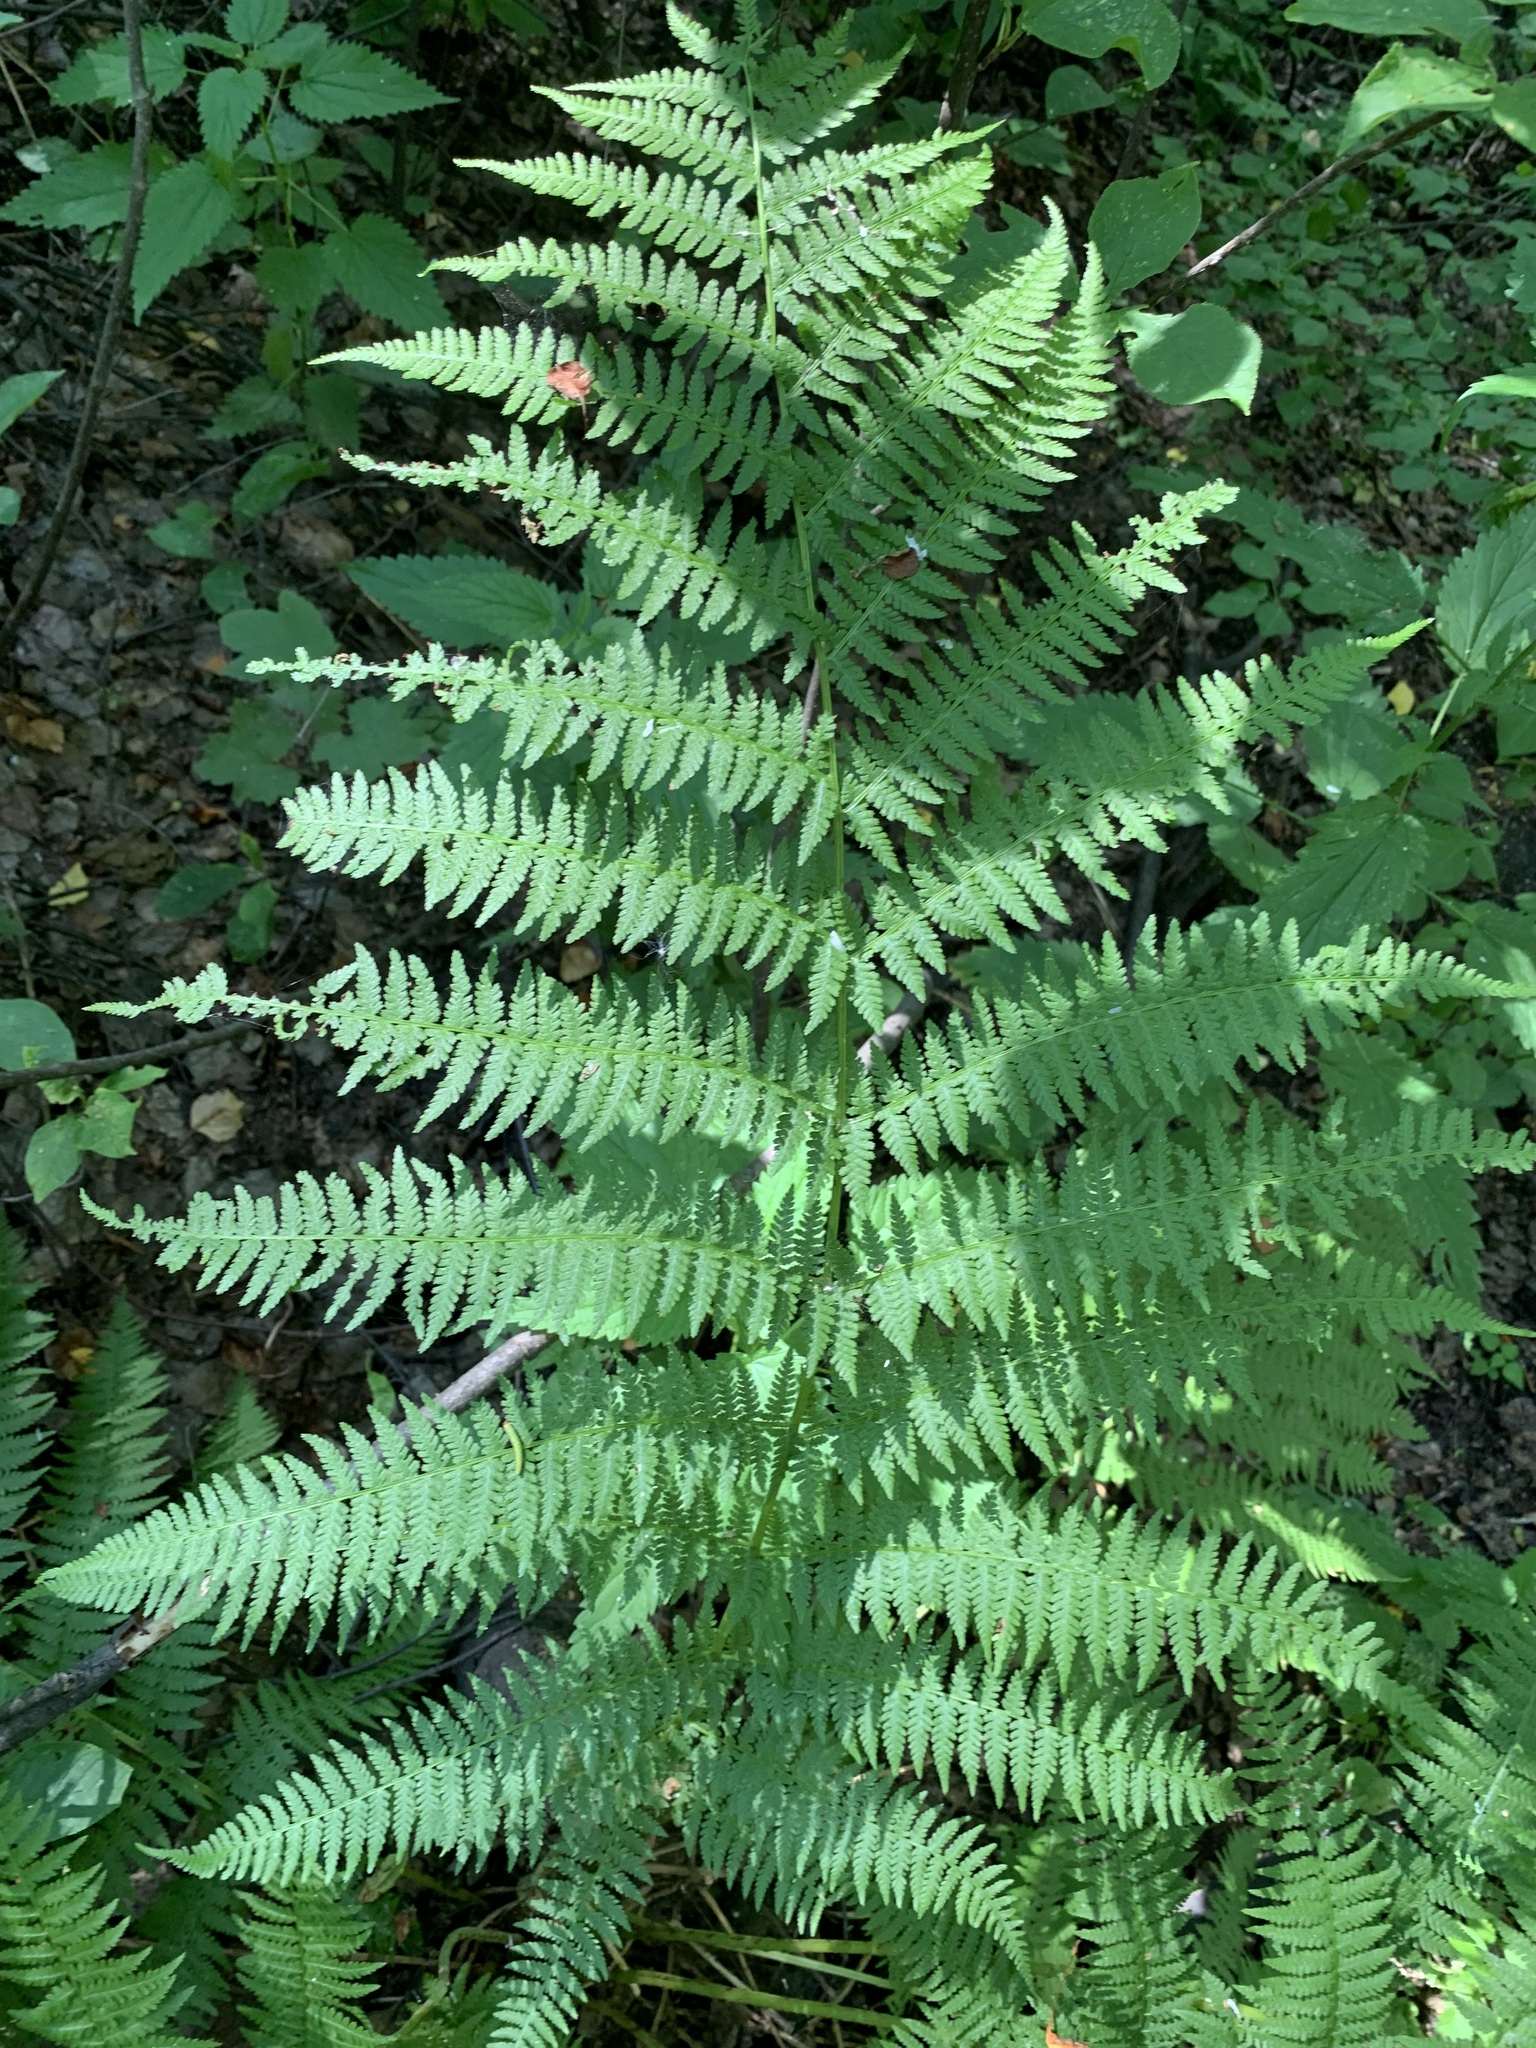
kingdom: Plantae
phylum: Tracheophyta
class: Polypodiopsida
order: Polypodiales
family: Athyriaceae
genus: Athyrium
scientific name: Athyrium filix-femina
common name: Lady fern
